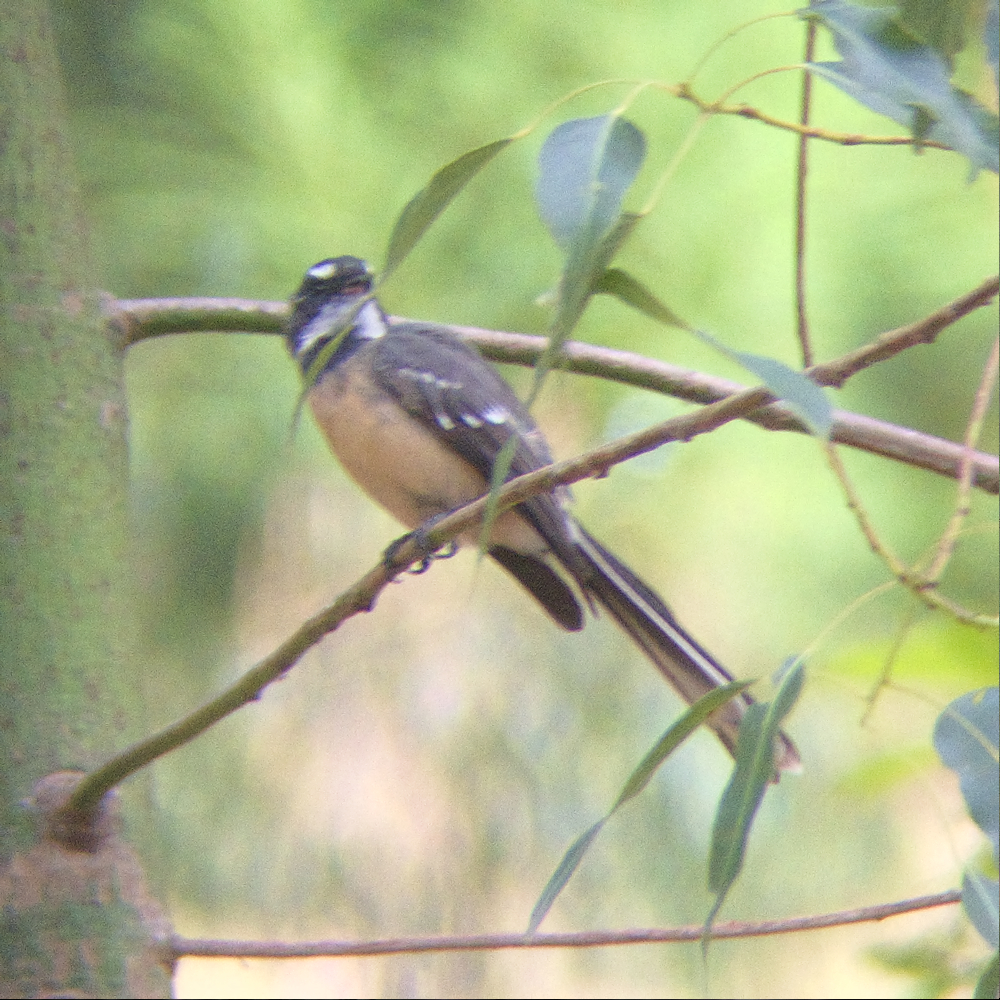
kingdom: Animalia
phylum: Chordata
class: Aves
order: Passeriformes
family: Rhipiduridae
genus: Rhipidura
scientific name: Rhipidura albiscapa
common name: Grey fantail
